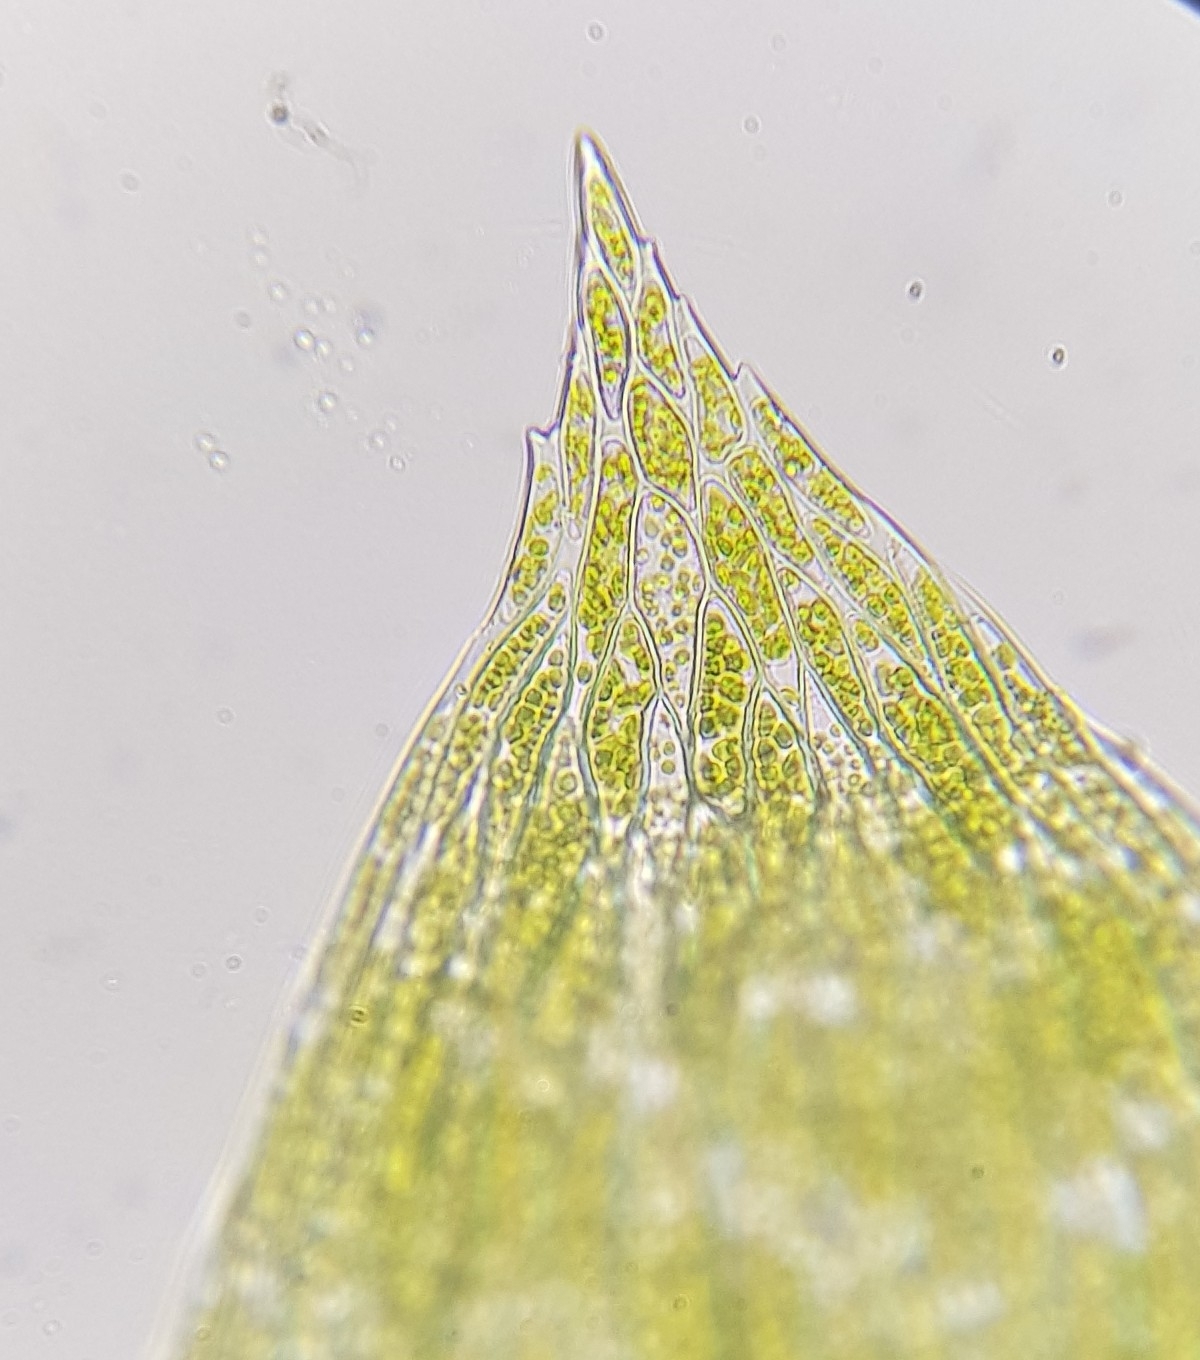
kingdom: Plantae
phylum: Bryophyta
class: Bryopsida
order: Hypnales
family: Plagiotheciaceae
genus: Plagiothecium
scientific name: Plagiothecium denticulatum
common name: Dented silk moss
